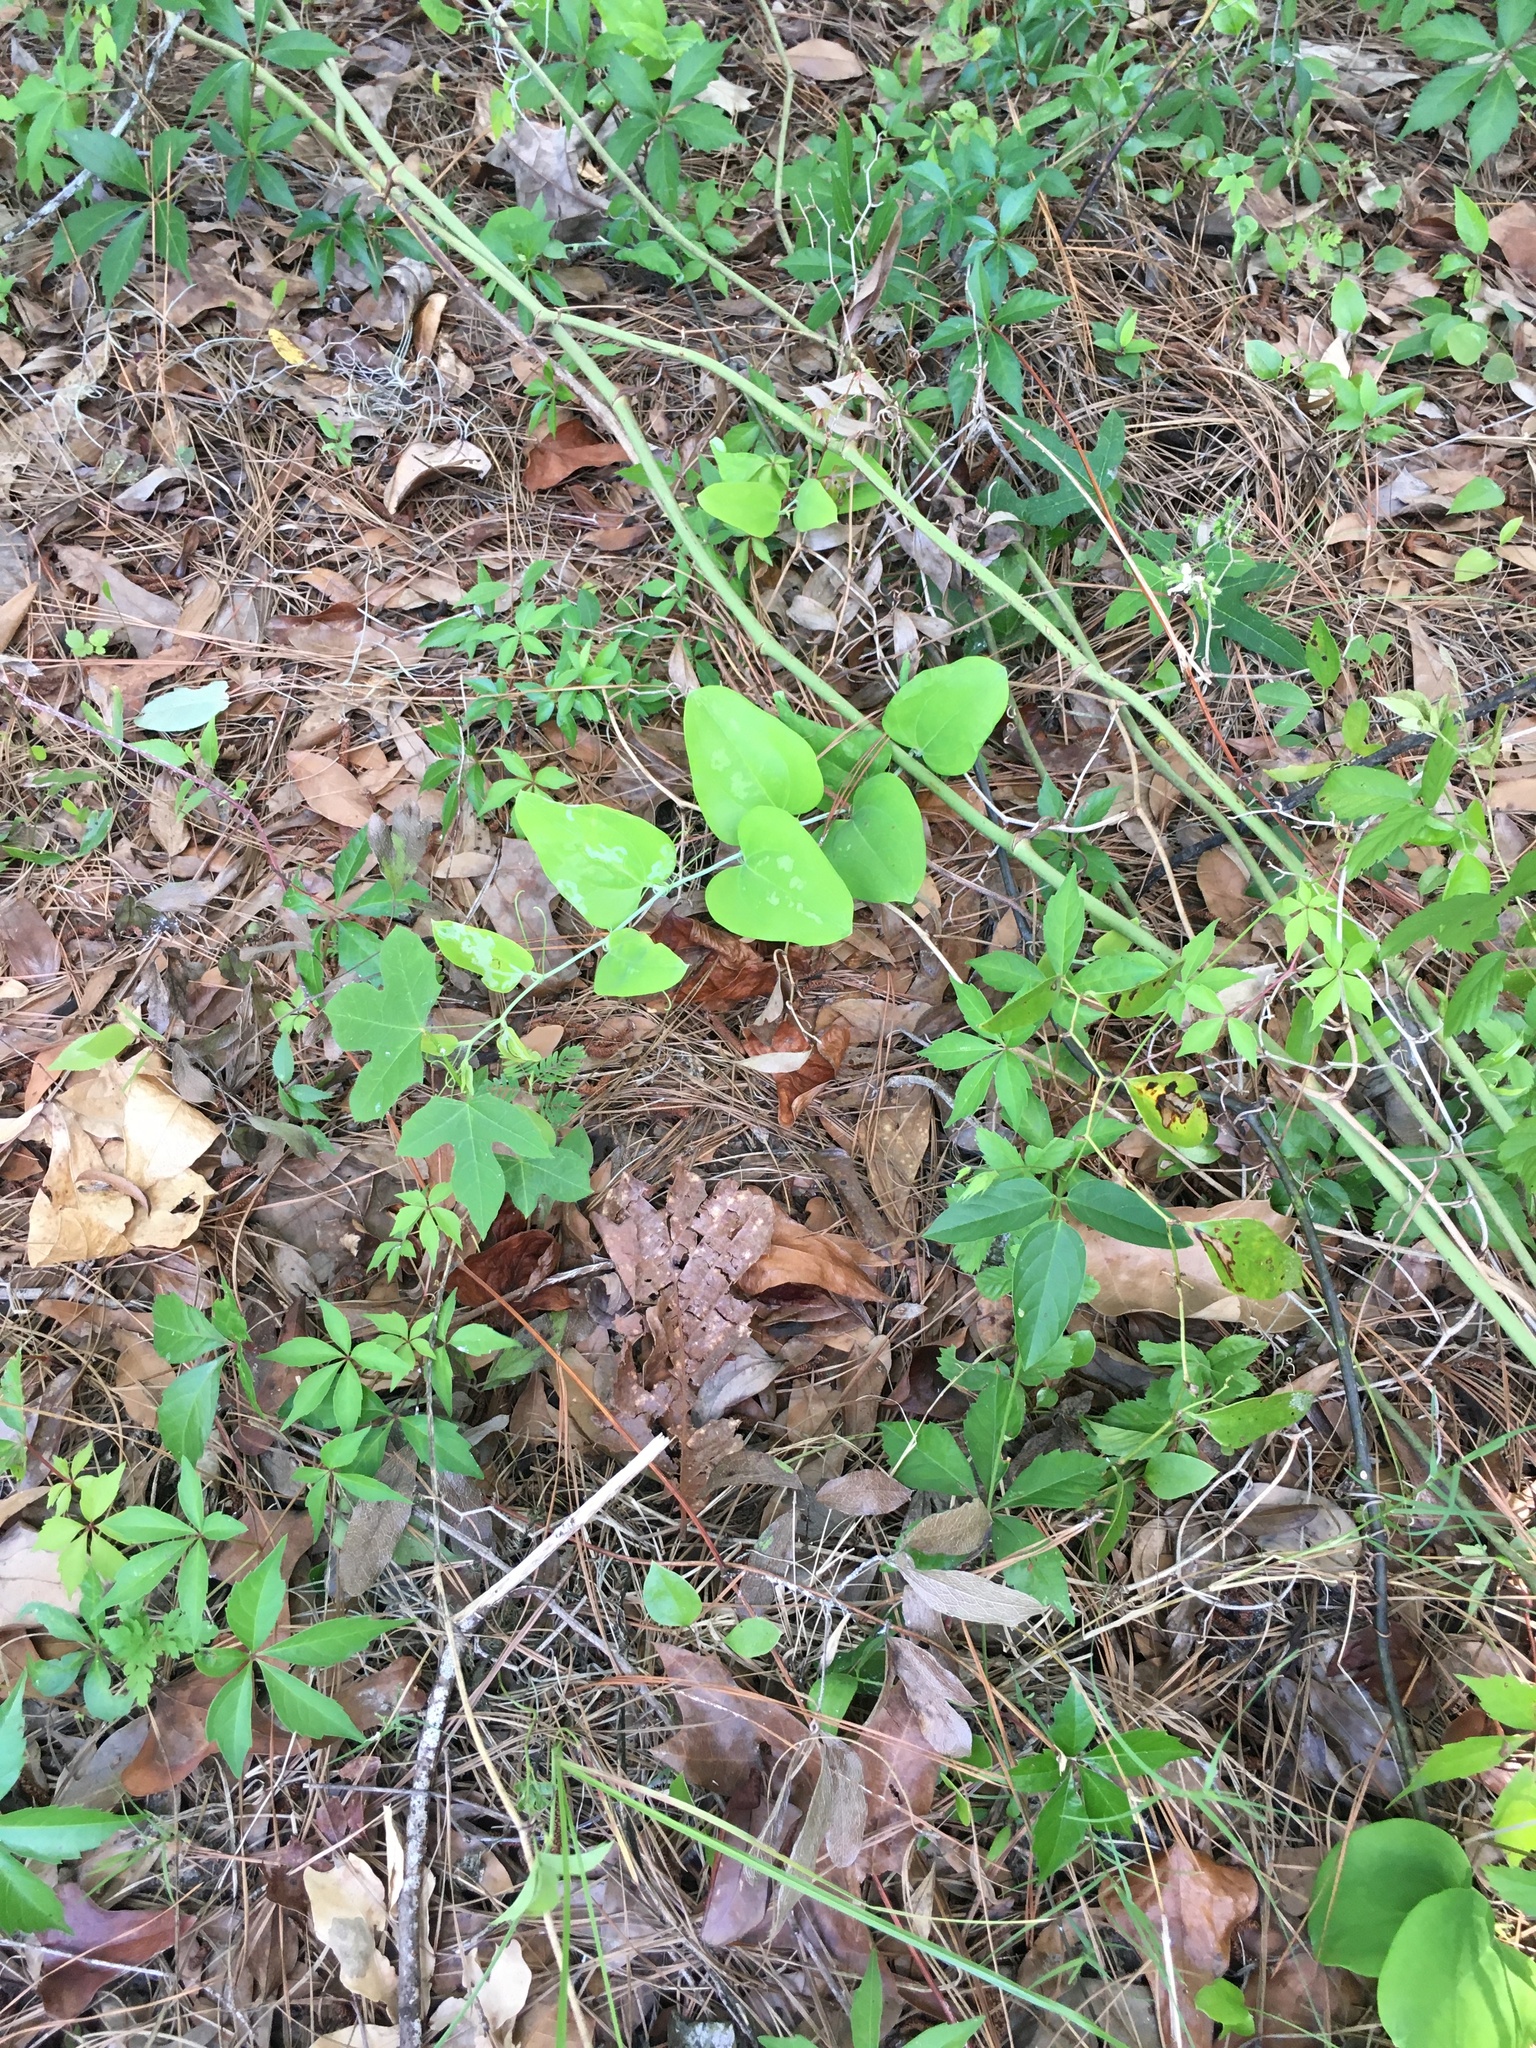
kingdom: Plantae
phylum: Tracheophyta
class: Liliopsida
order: Liliales
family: Smilacaceae
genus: Smilax
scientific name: Smilax glauca
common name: Cat greenbrier
